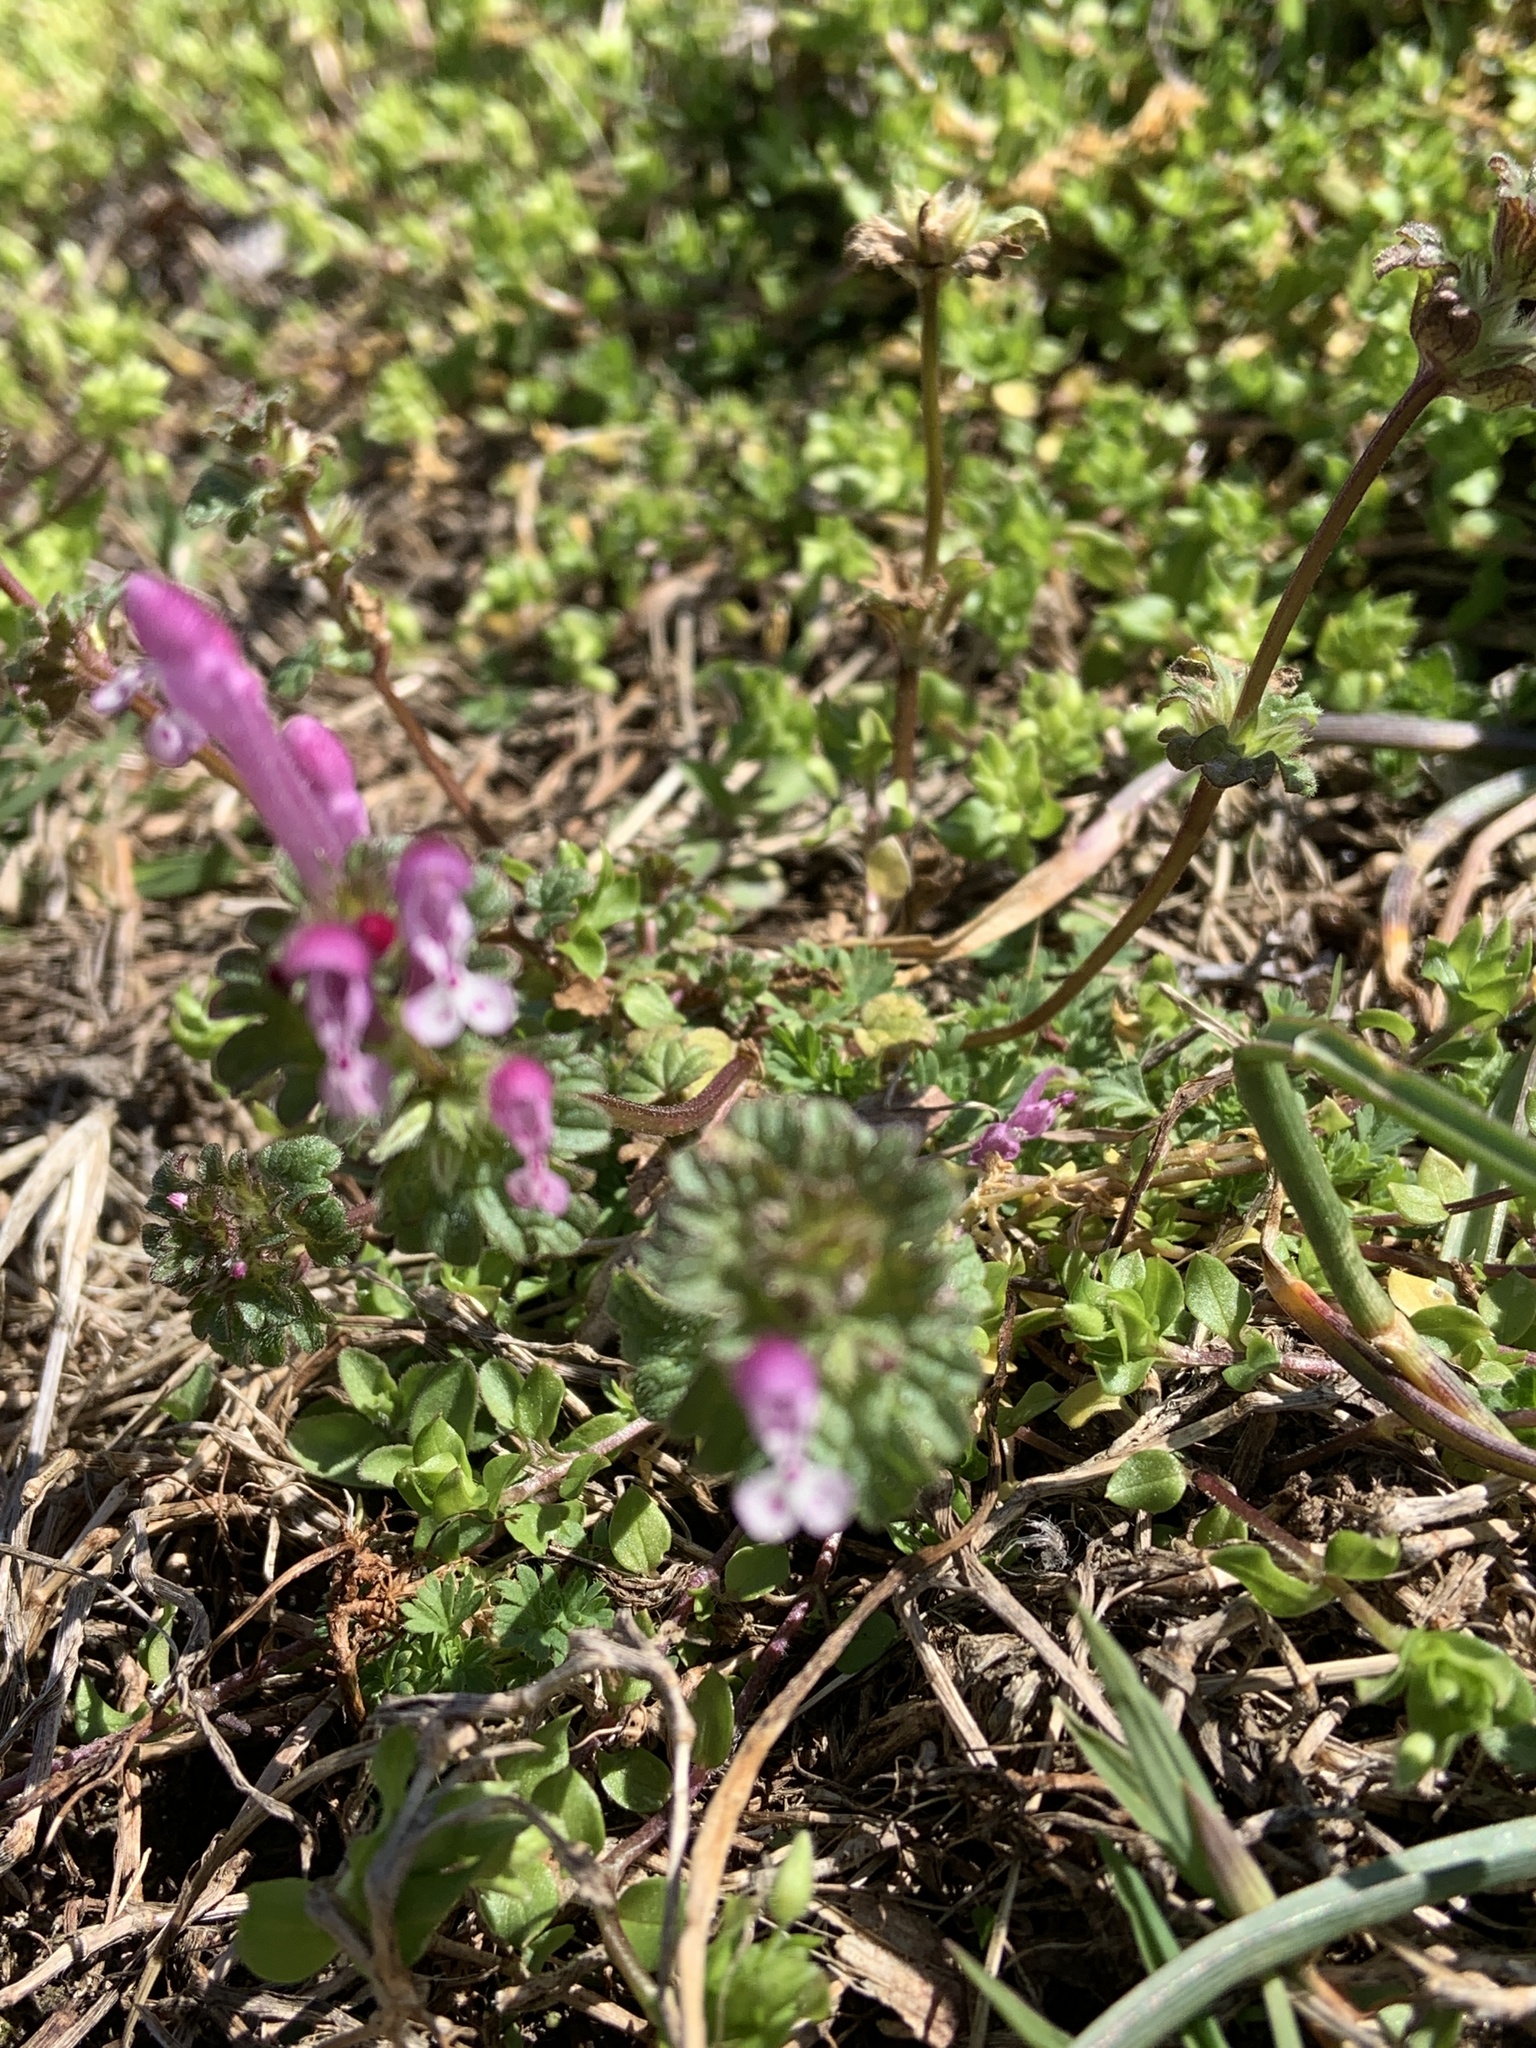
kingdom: Plantae
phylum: Tracheophyta
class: Magnoliopsida
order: Lamiales
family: Lamiaceae
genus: Lamium
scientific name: Lamium amplexicaule
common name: Henbit dead-nettle
